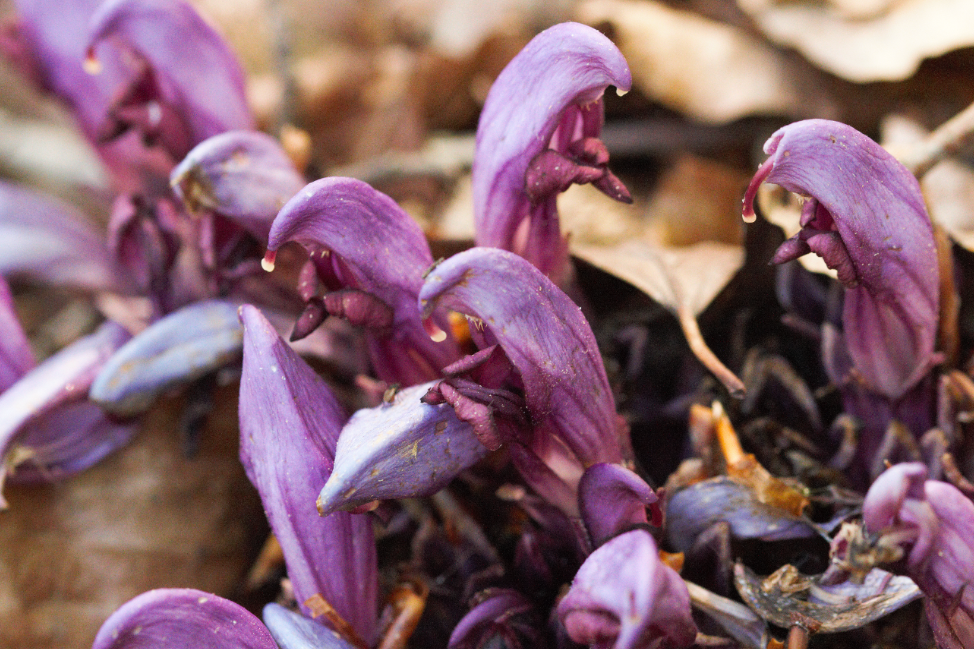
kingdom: Plantae
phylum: Tracheophyta
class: Magnoliopsida
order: Lamiales
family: Orobanchaceae
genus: Lathraea
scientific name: Lathraea clandestina
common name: Purple toothwort
